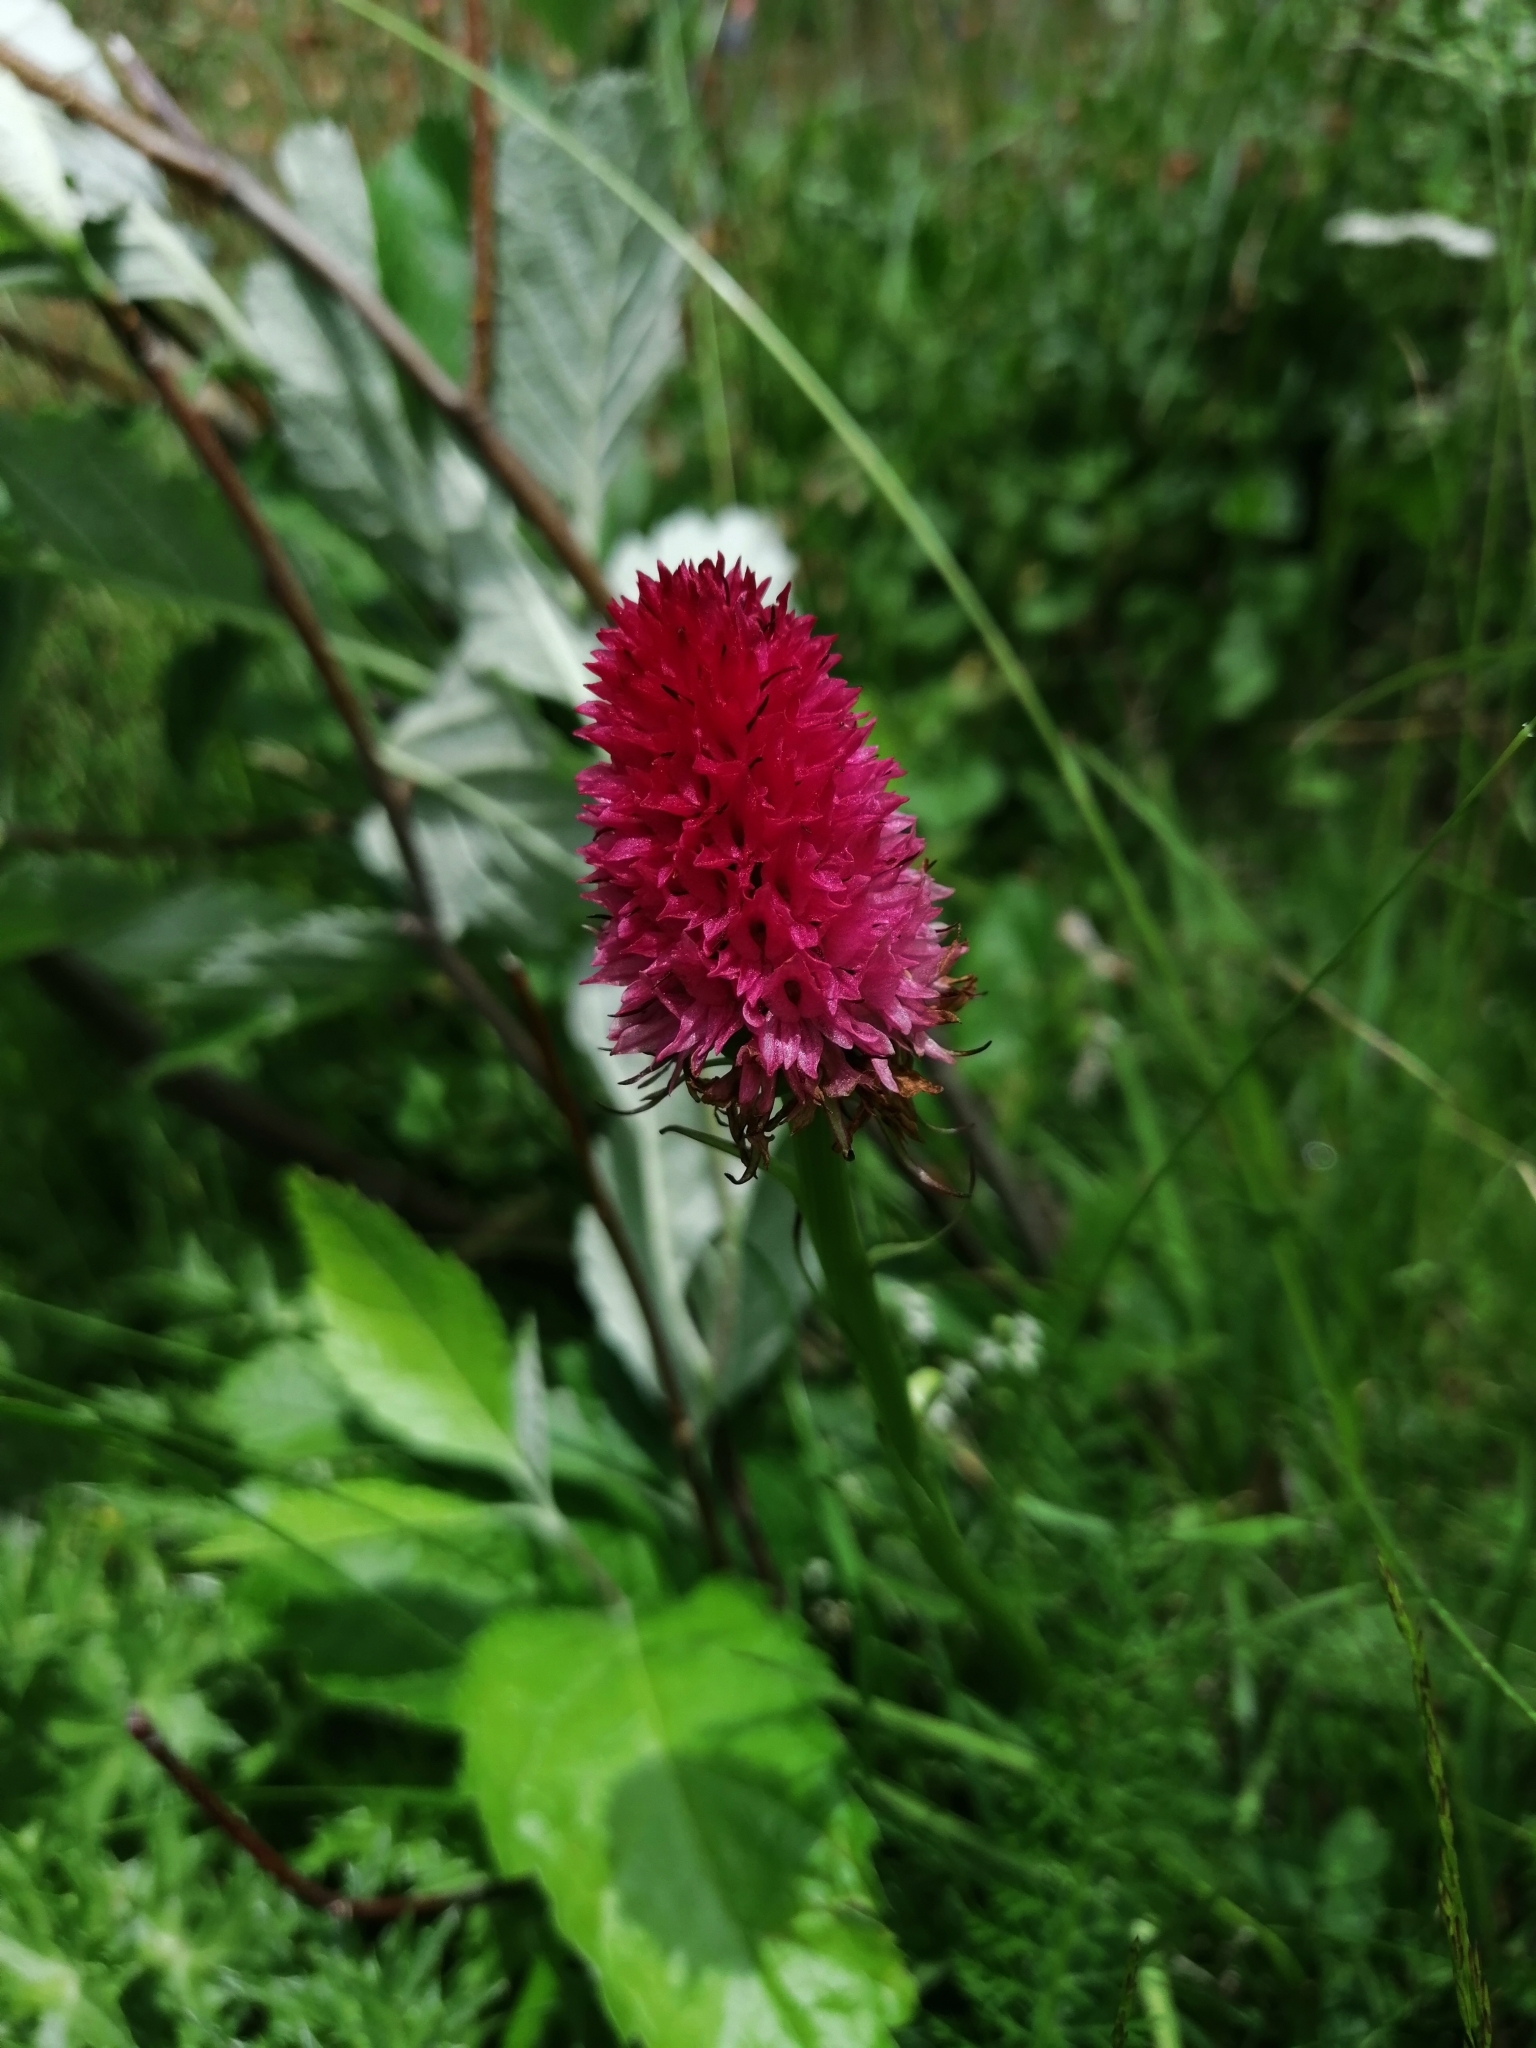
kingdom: Plantae
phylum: Tracheophyta
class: Liliopsida
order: Asparagales
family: Orchidaceae
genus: Gymnadenia
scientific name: Gymnadenia rhellicani
